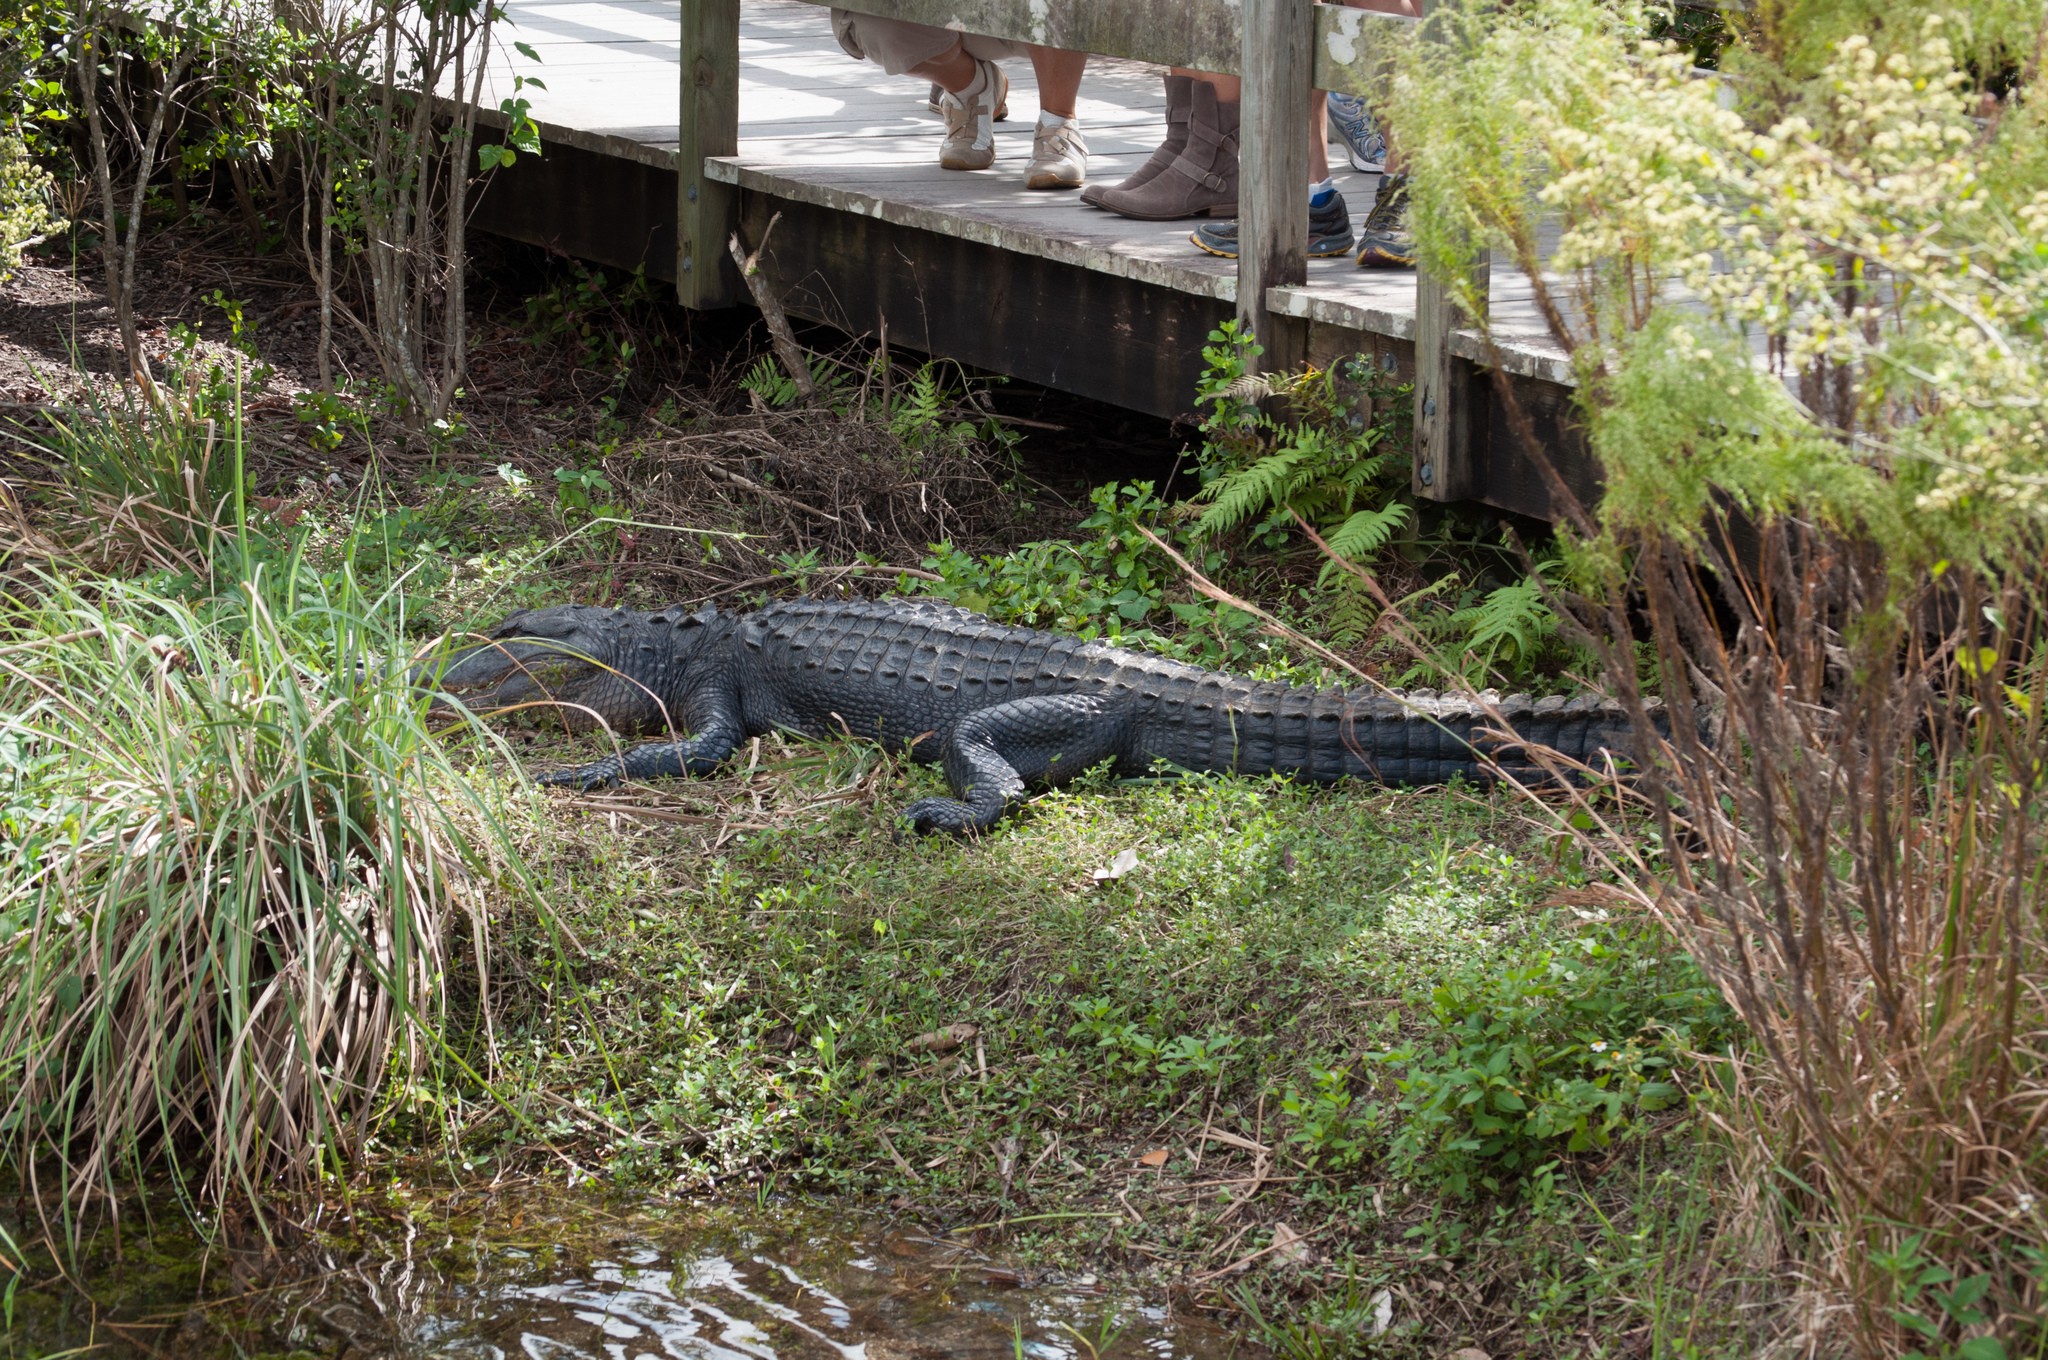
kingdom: Animalia
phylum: Chordata
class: Crocodylia
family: Alligatoridae
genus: Alligator
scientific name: Alligator mississippiensis
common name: American alligator
